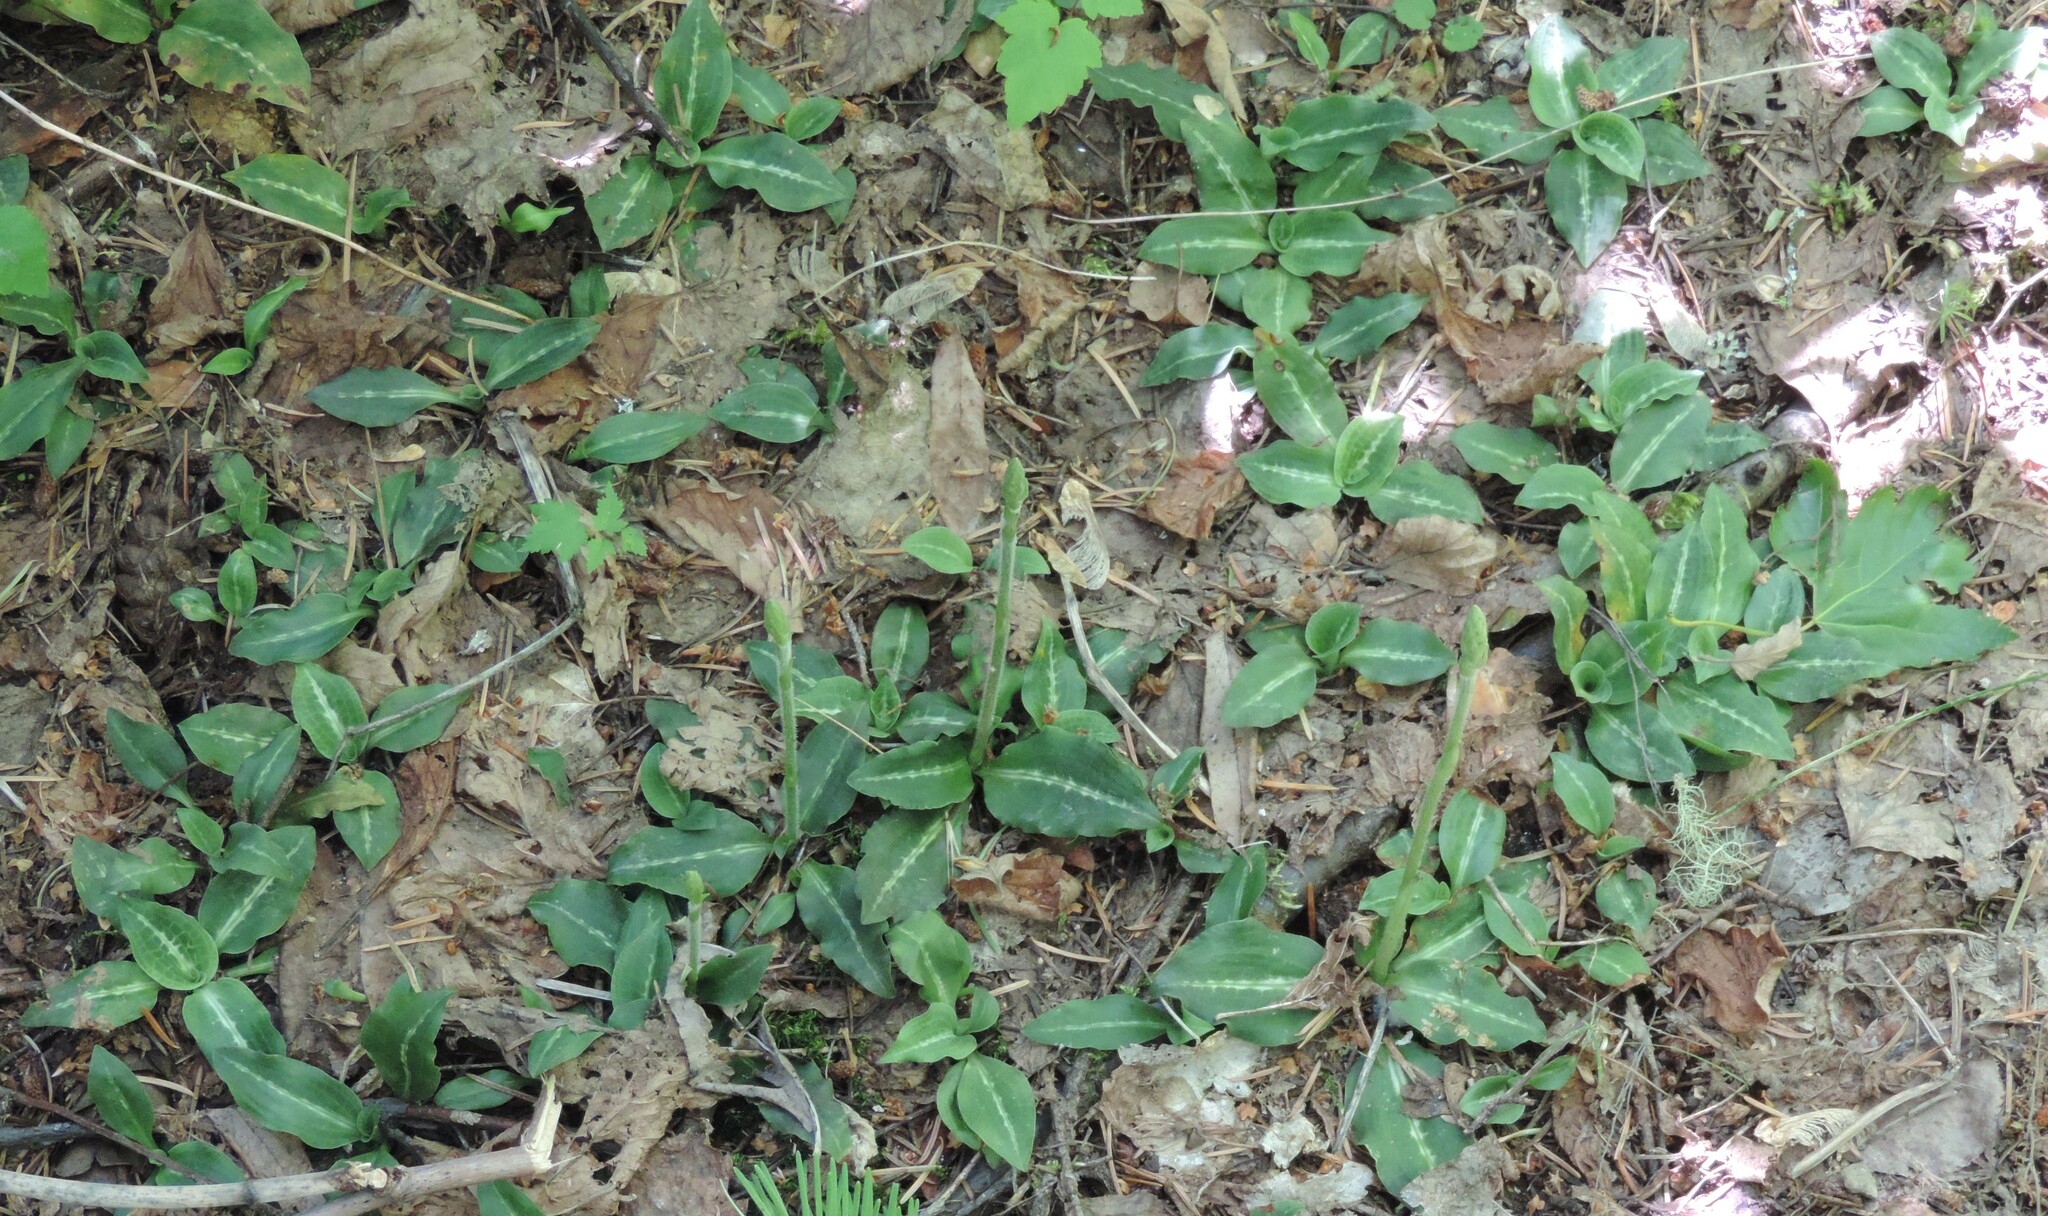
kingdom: Plantae
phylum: Tracheophyta
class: Liliopsida
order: Asparagales
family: Orchidaceae
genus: Goodyera
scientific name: Goodyera oblongifolia
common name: Giant rattlesnake-plantain
